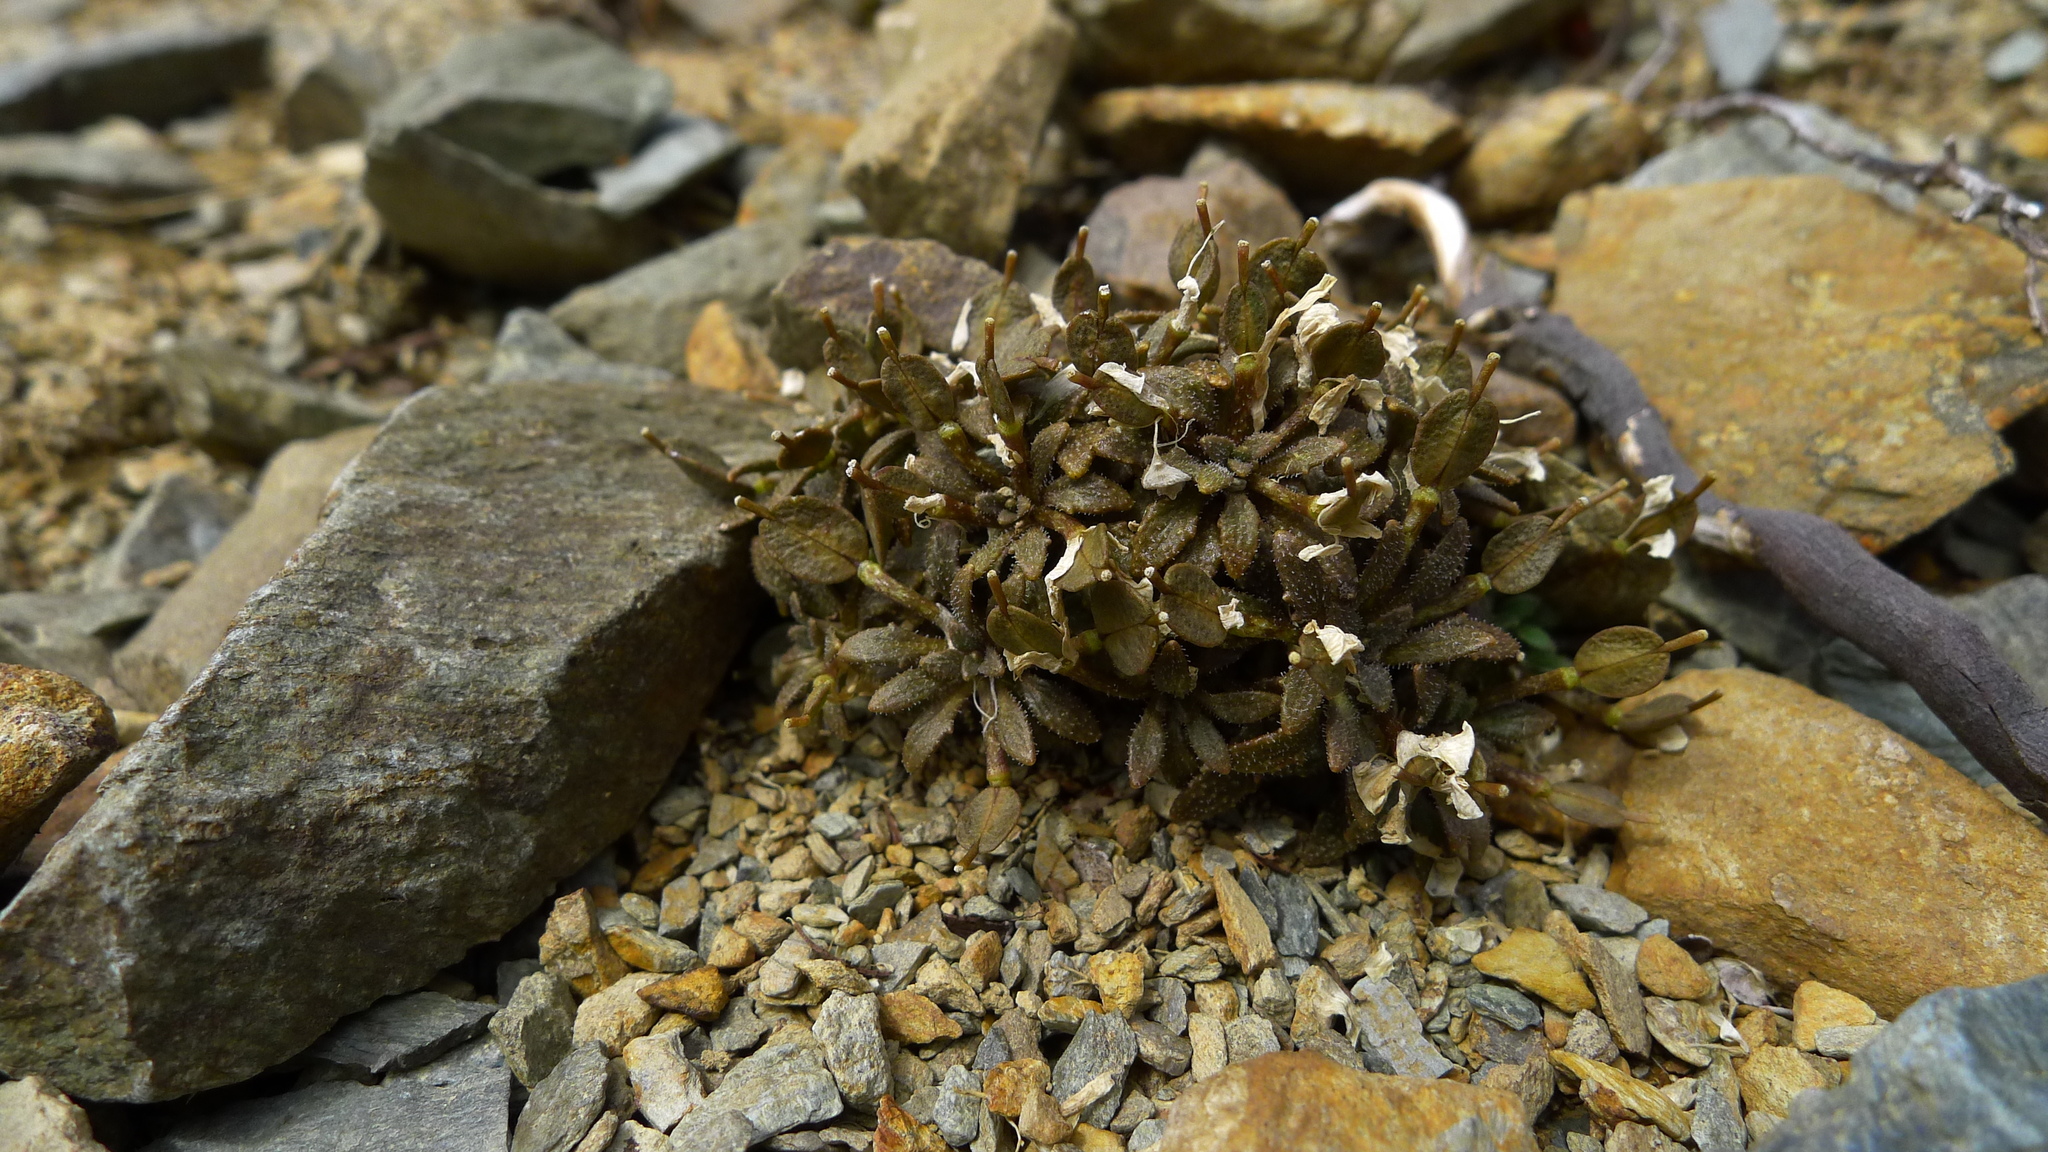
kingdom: Plantae
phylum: Tracheophyta
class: Magnoliopsida
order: Brassicales
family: Brassicaceae
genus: Notothlaspi
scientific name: Notothlaspi australe
